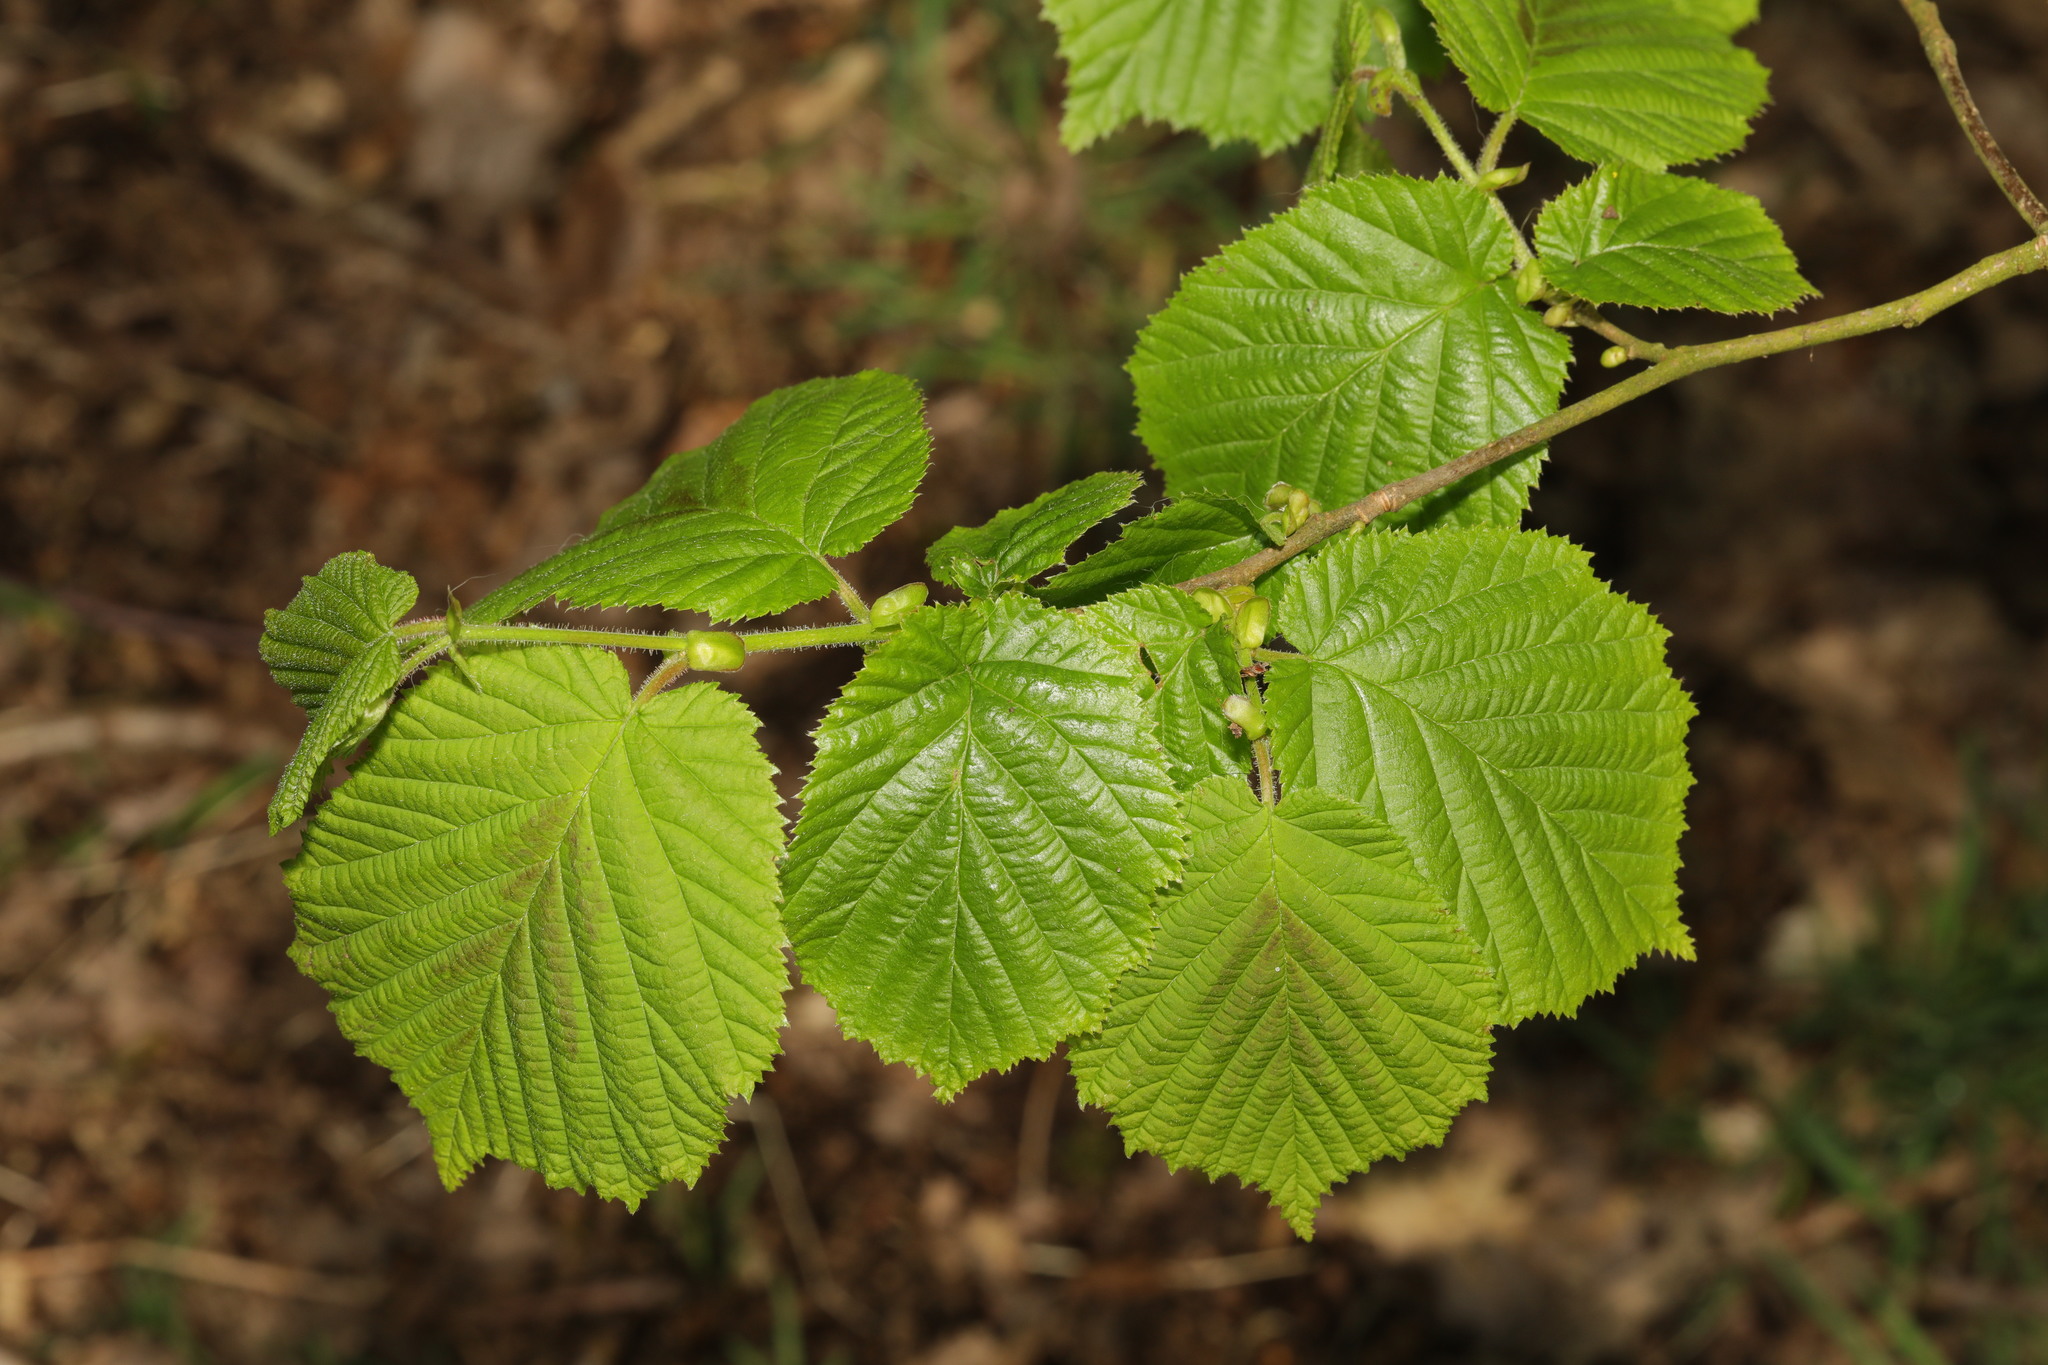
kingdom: Plantae
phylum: Tracheophyta
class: Magnoliopsida
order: Fagales
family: Betulaceae
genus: Corylus
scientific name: Corylus avellana
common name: European hazel
